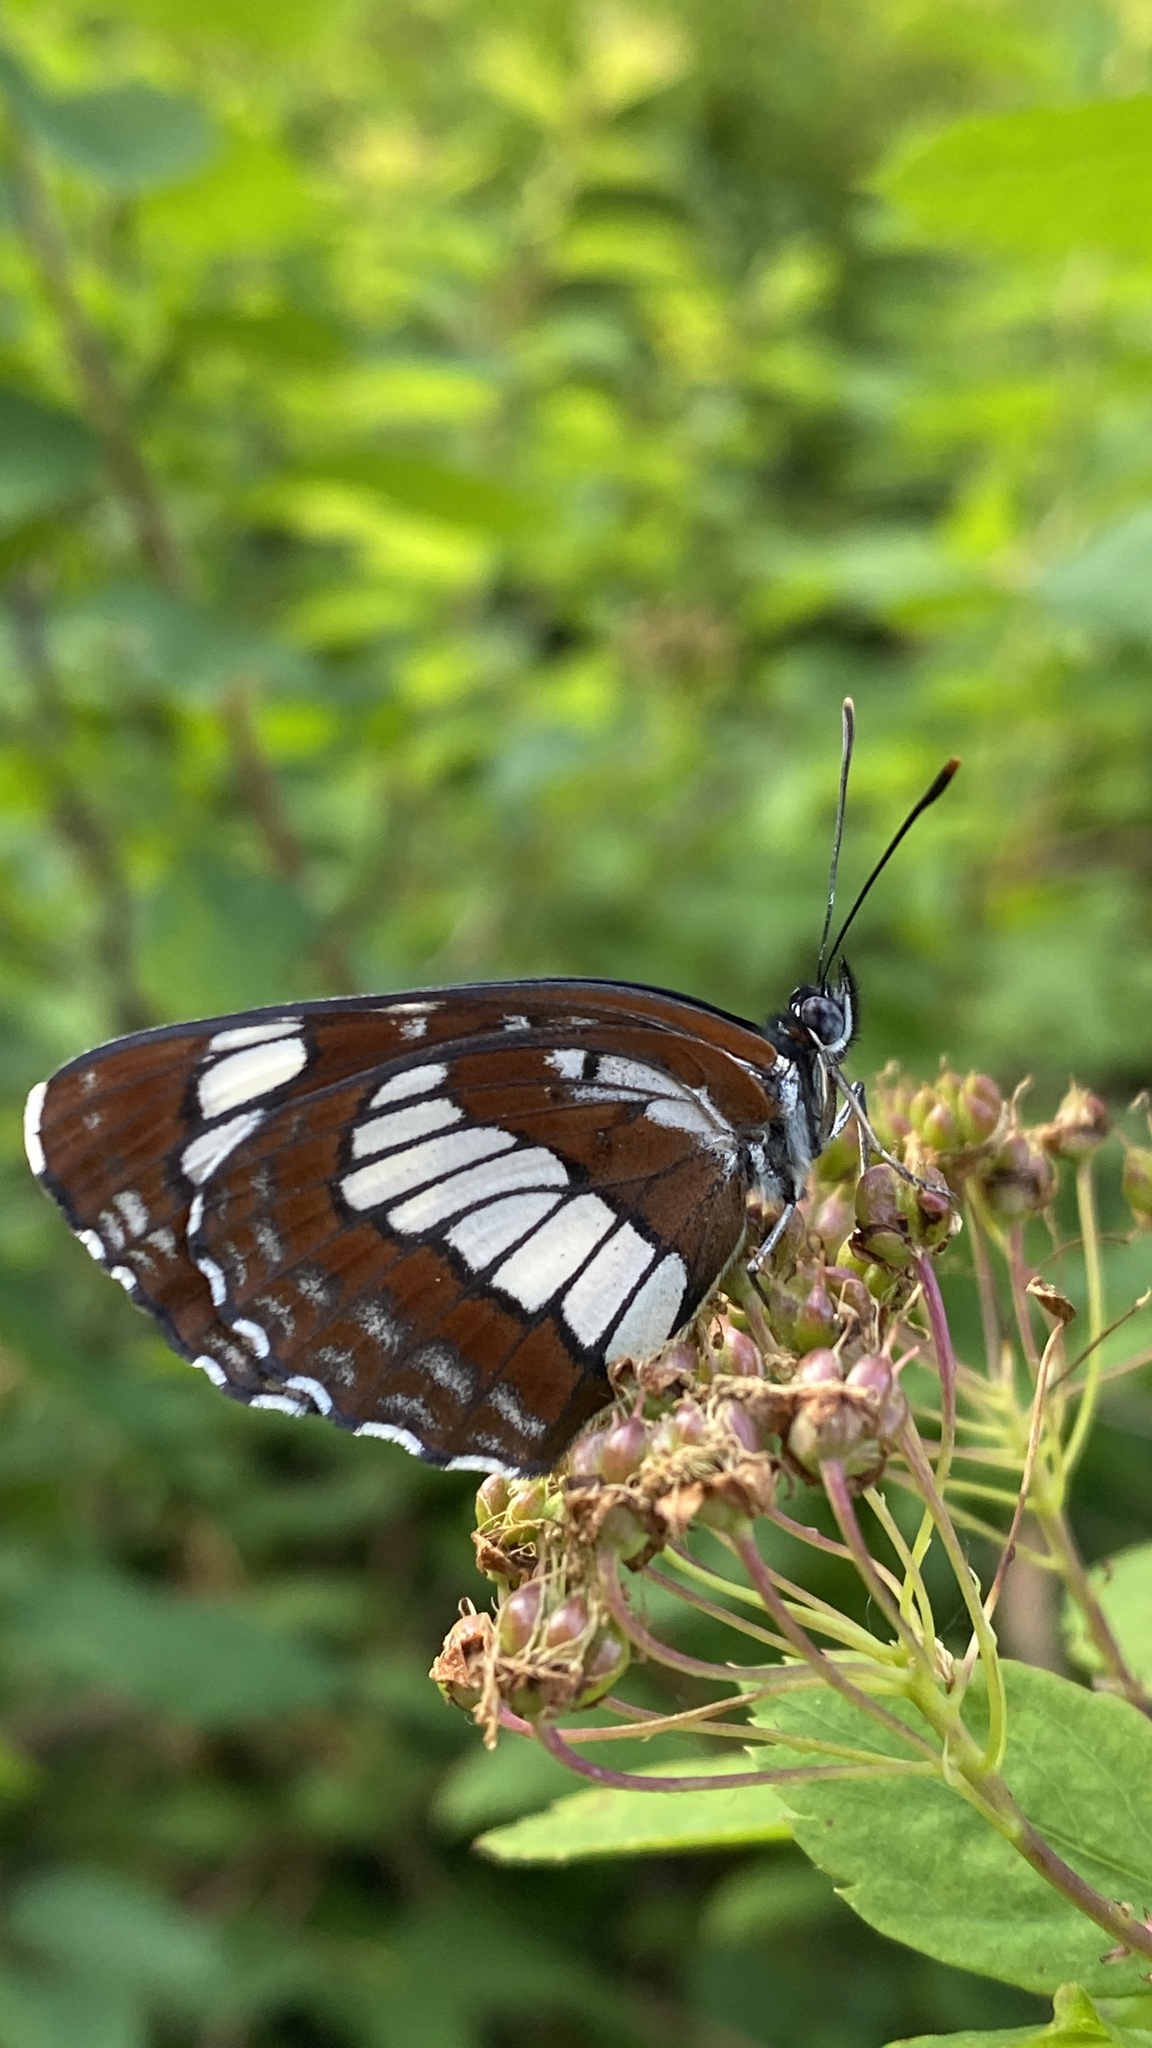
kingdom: Animalia
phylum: Arthropoda
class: Insecta
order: Lepidoptera
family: Nymphalidae
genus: Neptis
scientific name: Neptis rivularis
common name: Hungarian glider
